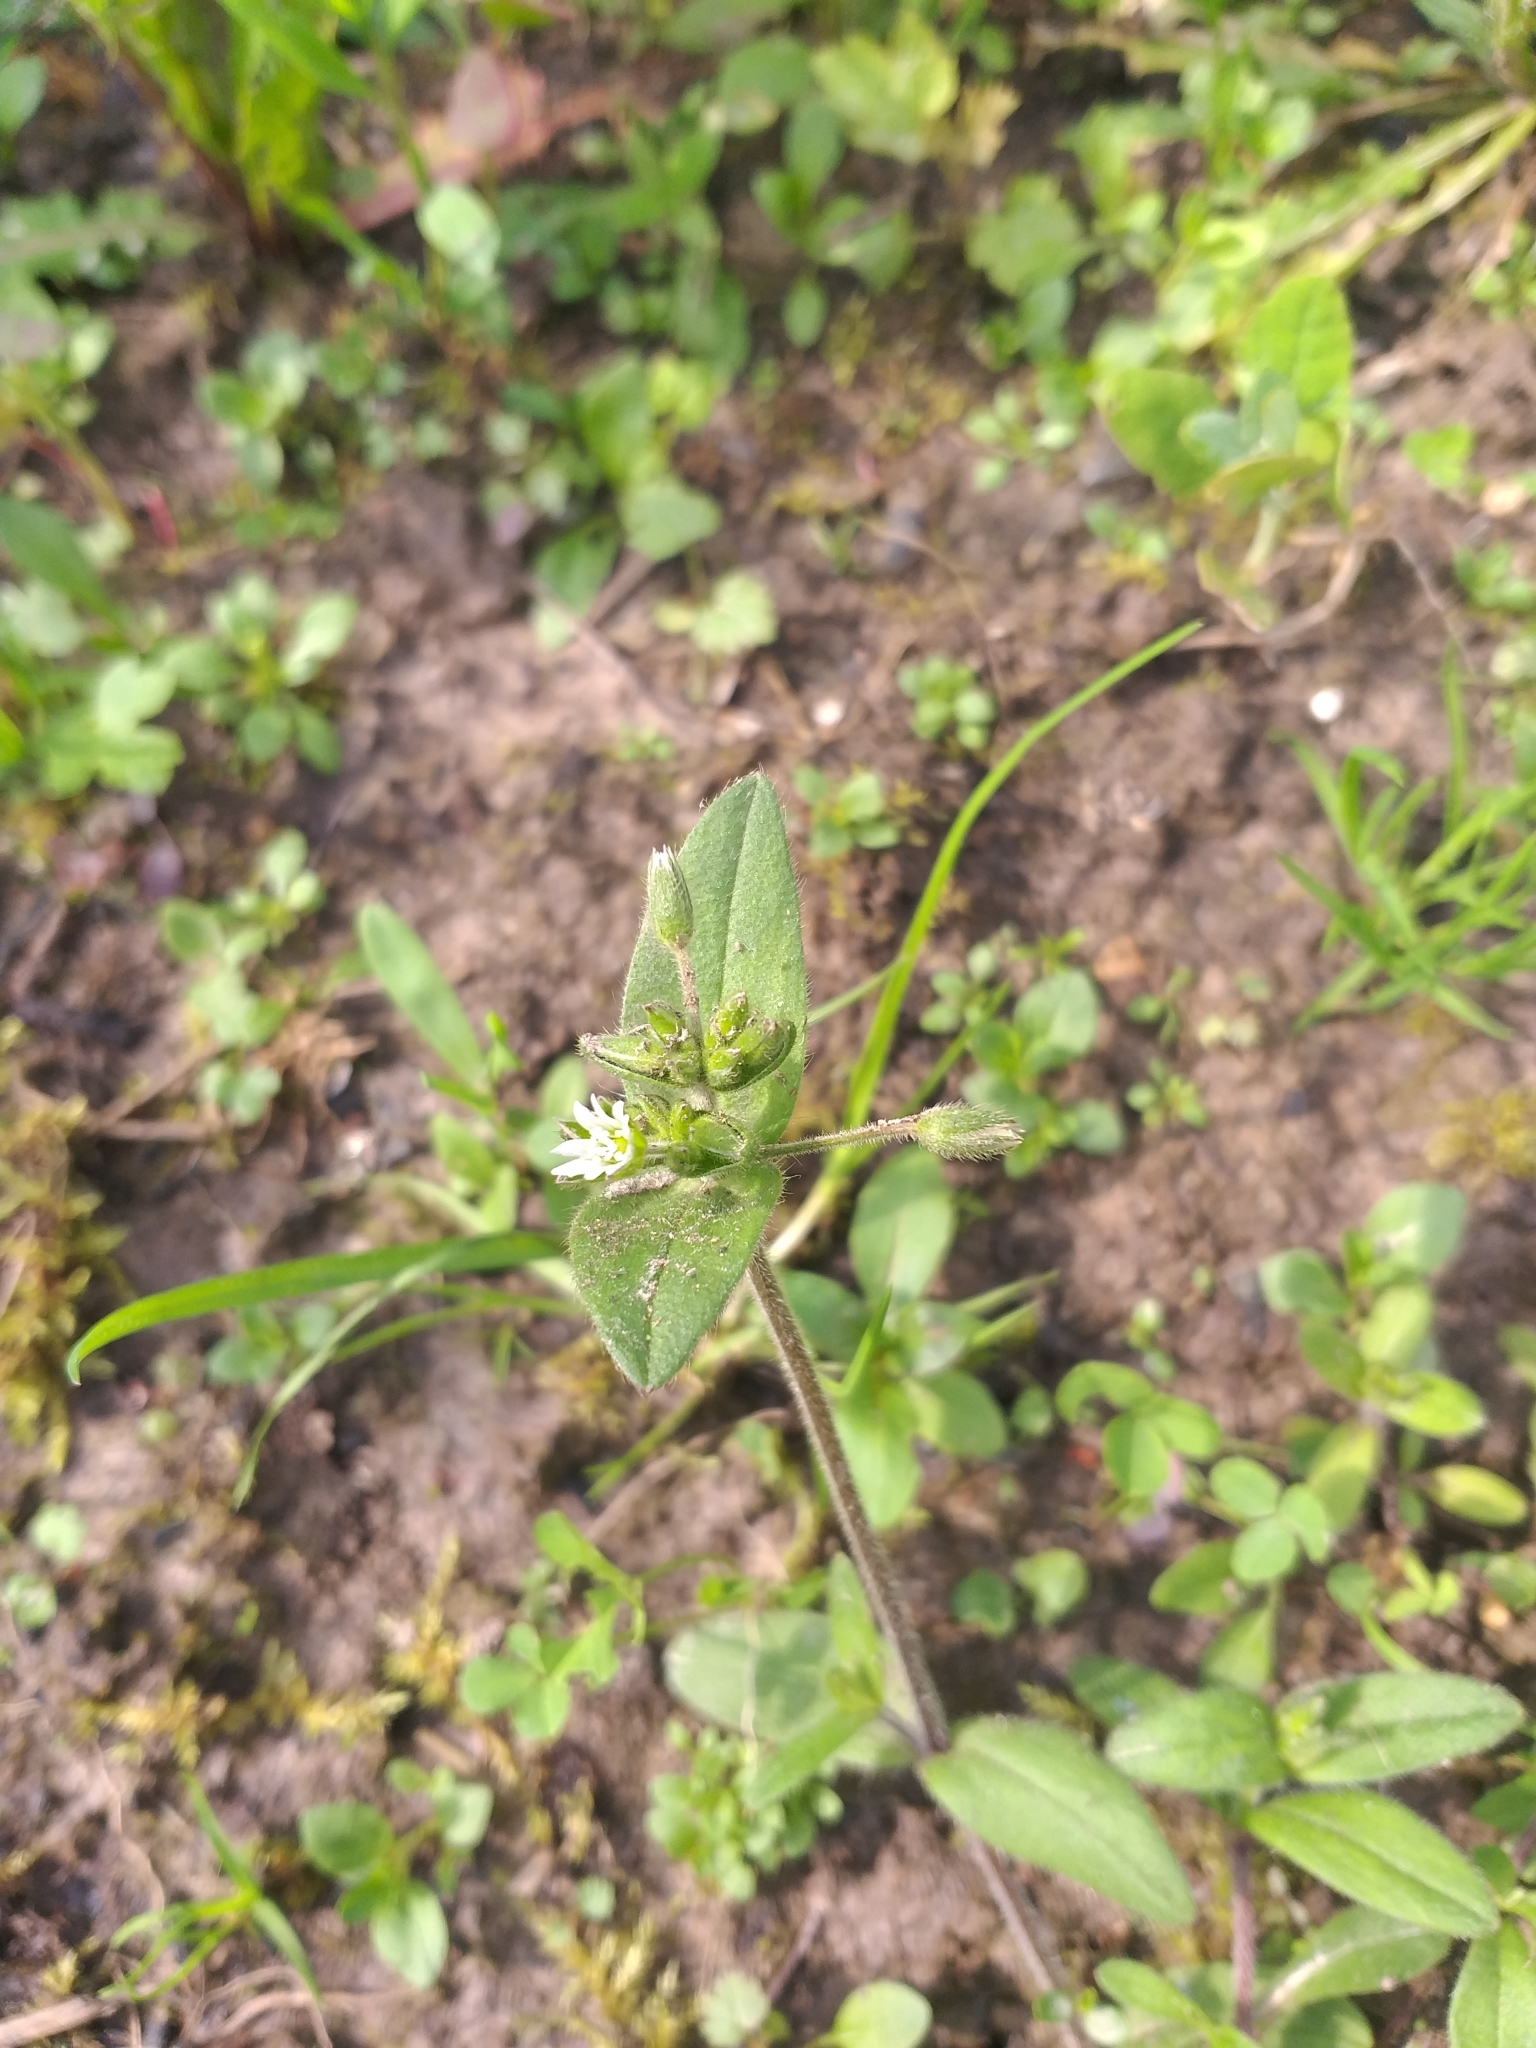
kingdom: Plantae
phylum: Tracheophyta
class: Magnoliopsida
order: Caryophyllales
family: Caryophyllaceae
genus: Cerastium
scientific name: Cerastium holosteoides
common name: Big chickweed
